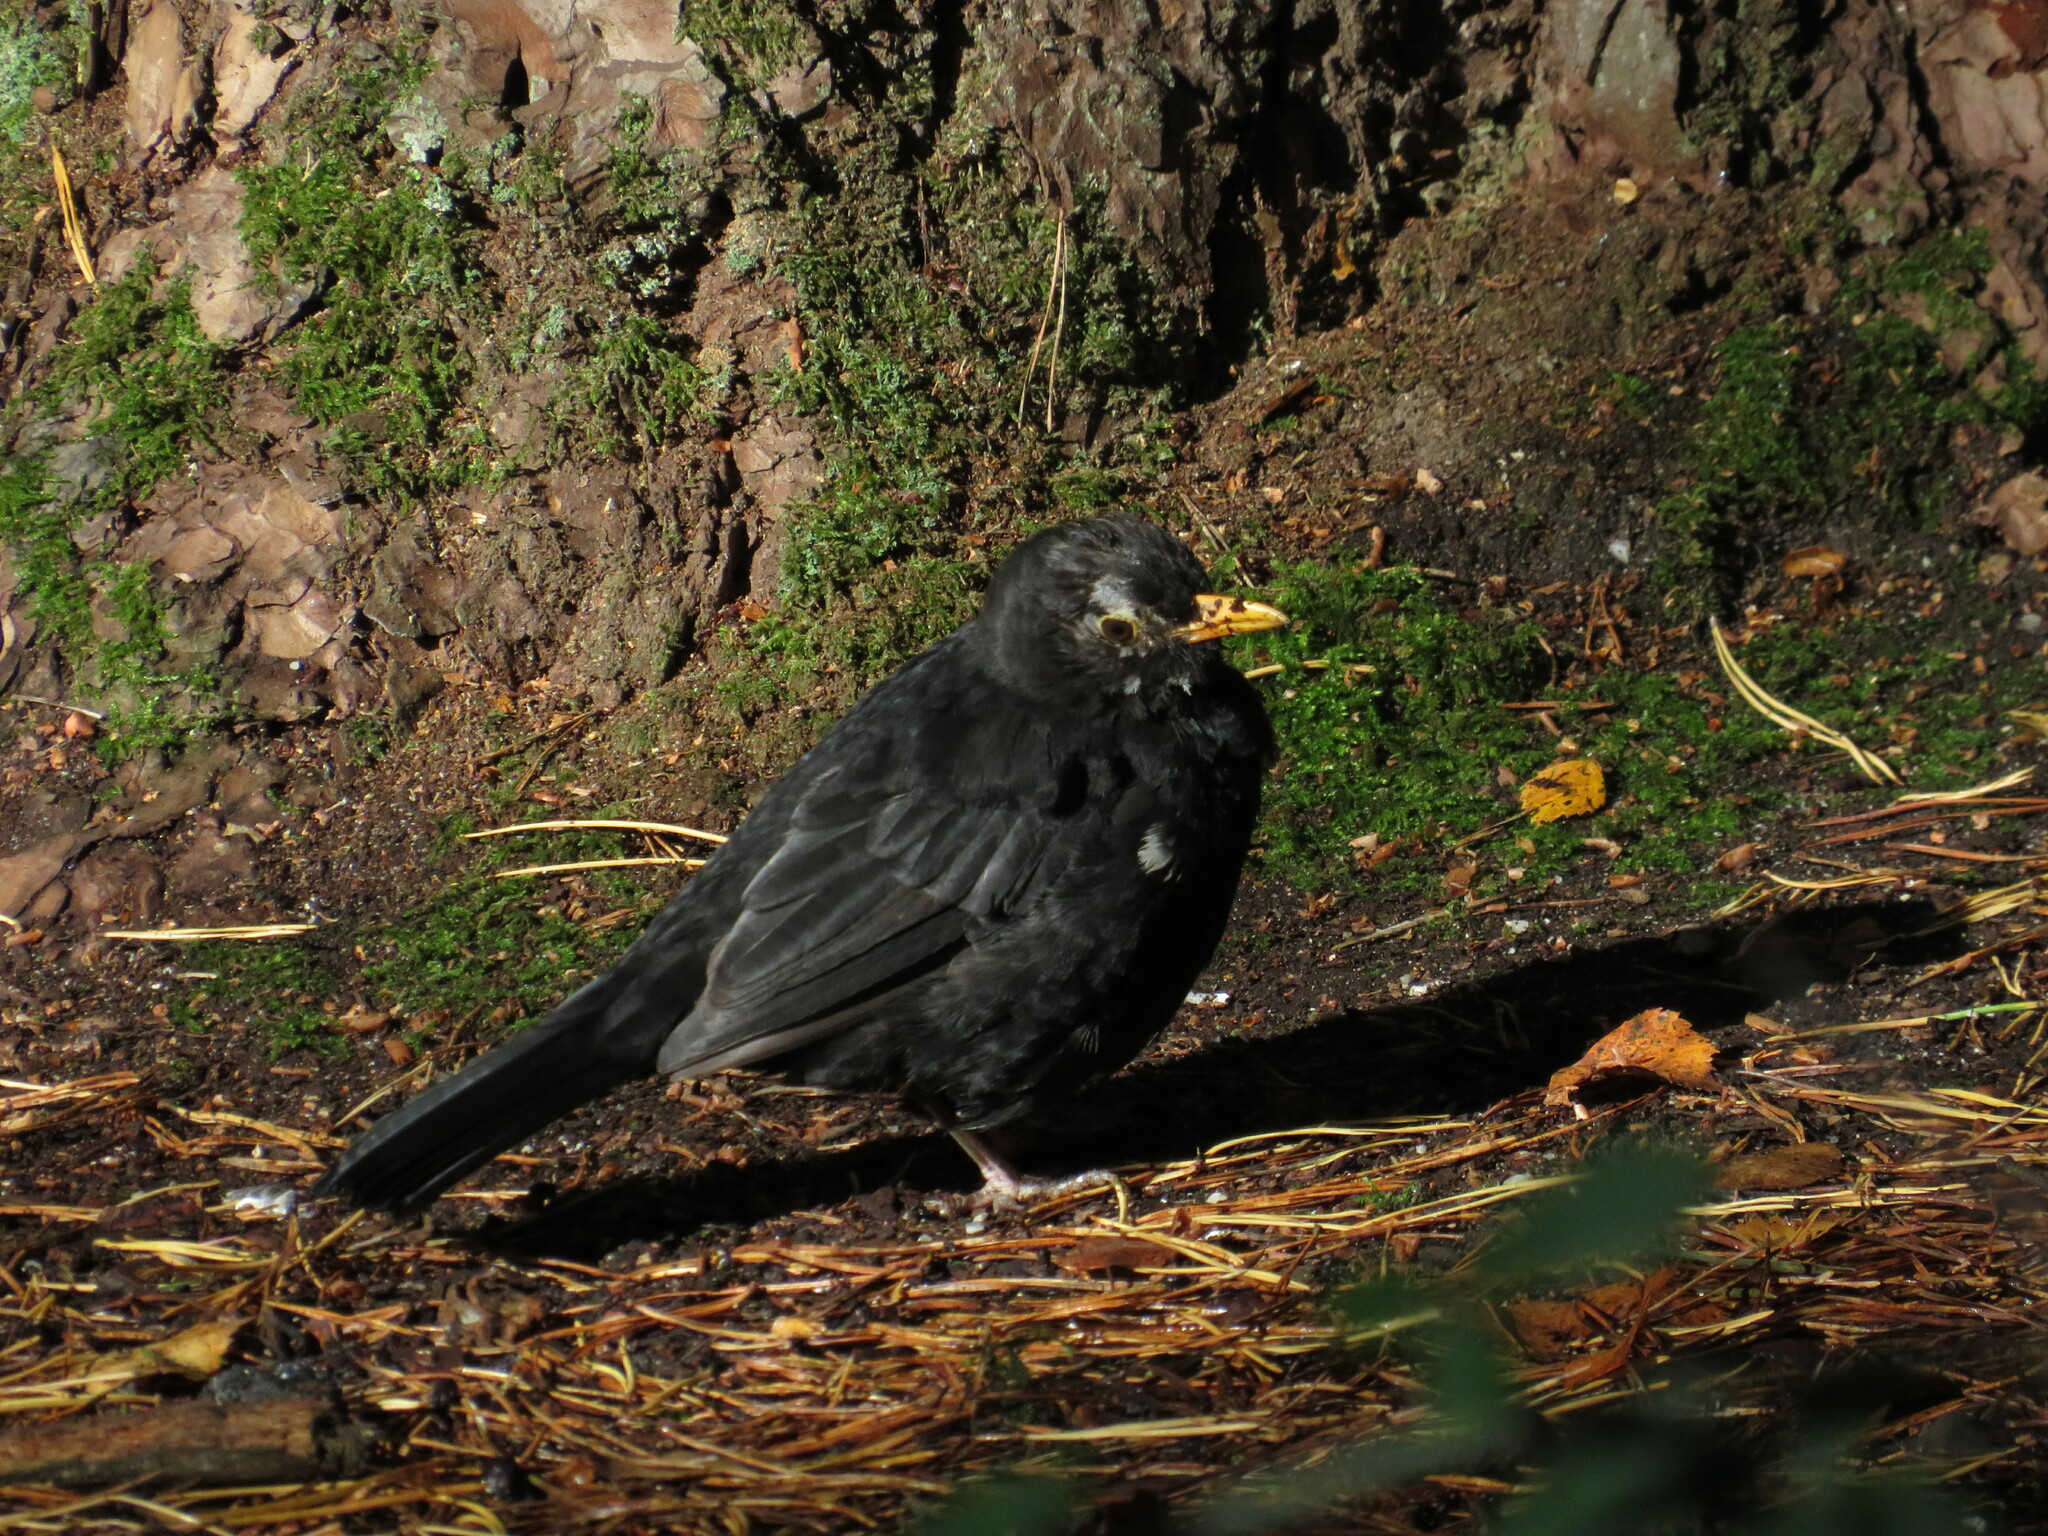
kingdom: Animalia
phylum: Chordata
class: Aves
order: Passeriformes
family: Turdidae
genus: Turdus
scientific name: Turdus merula
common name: Common blackbird
